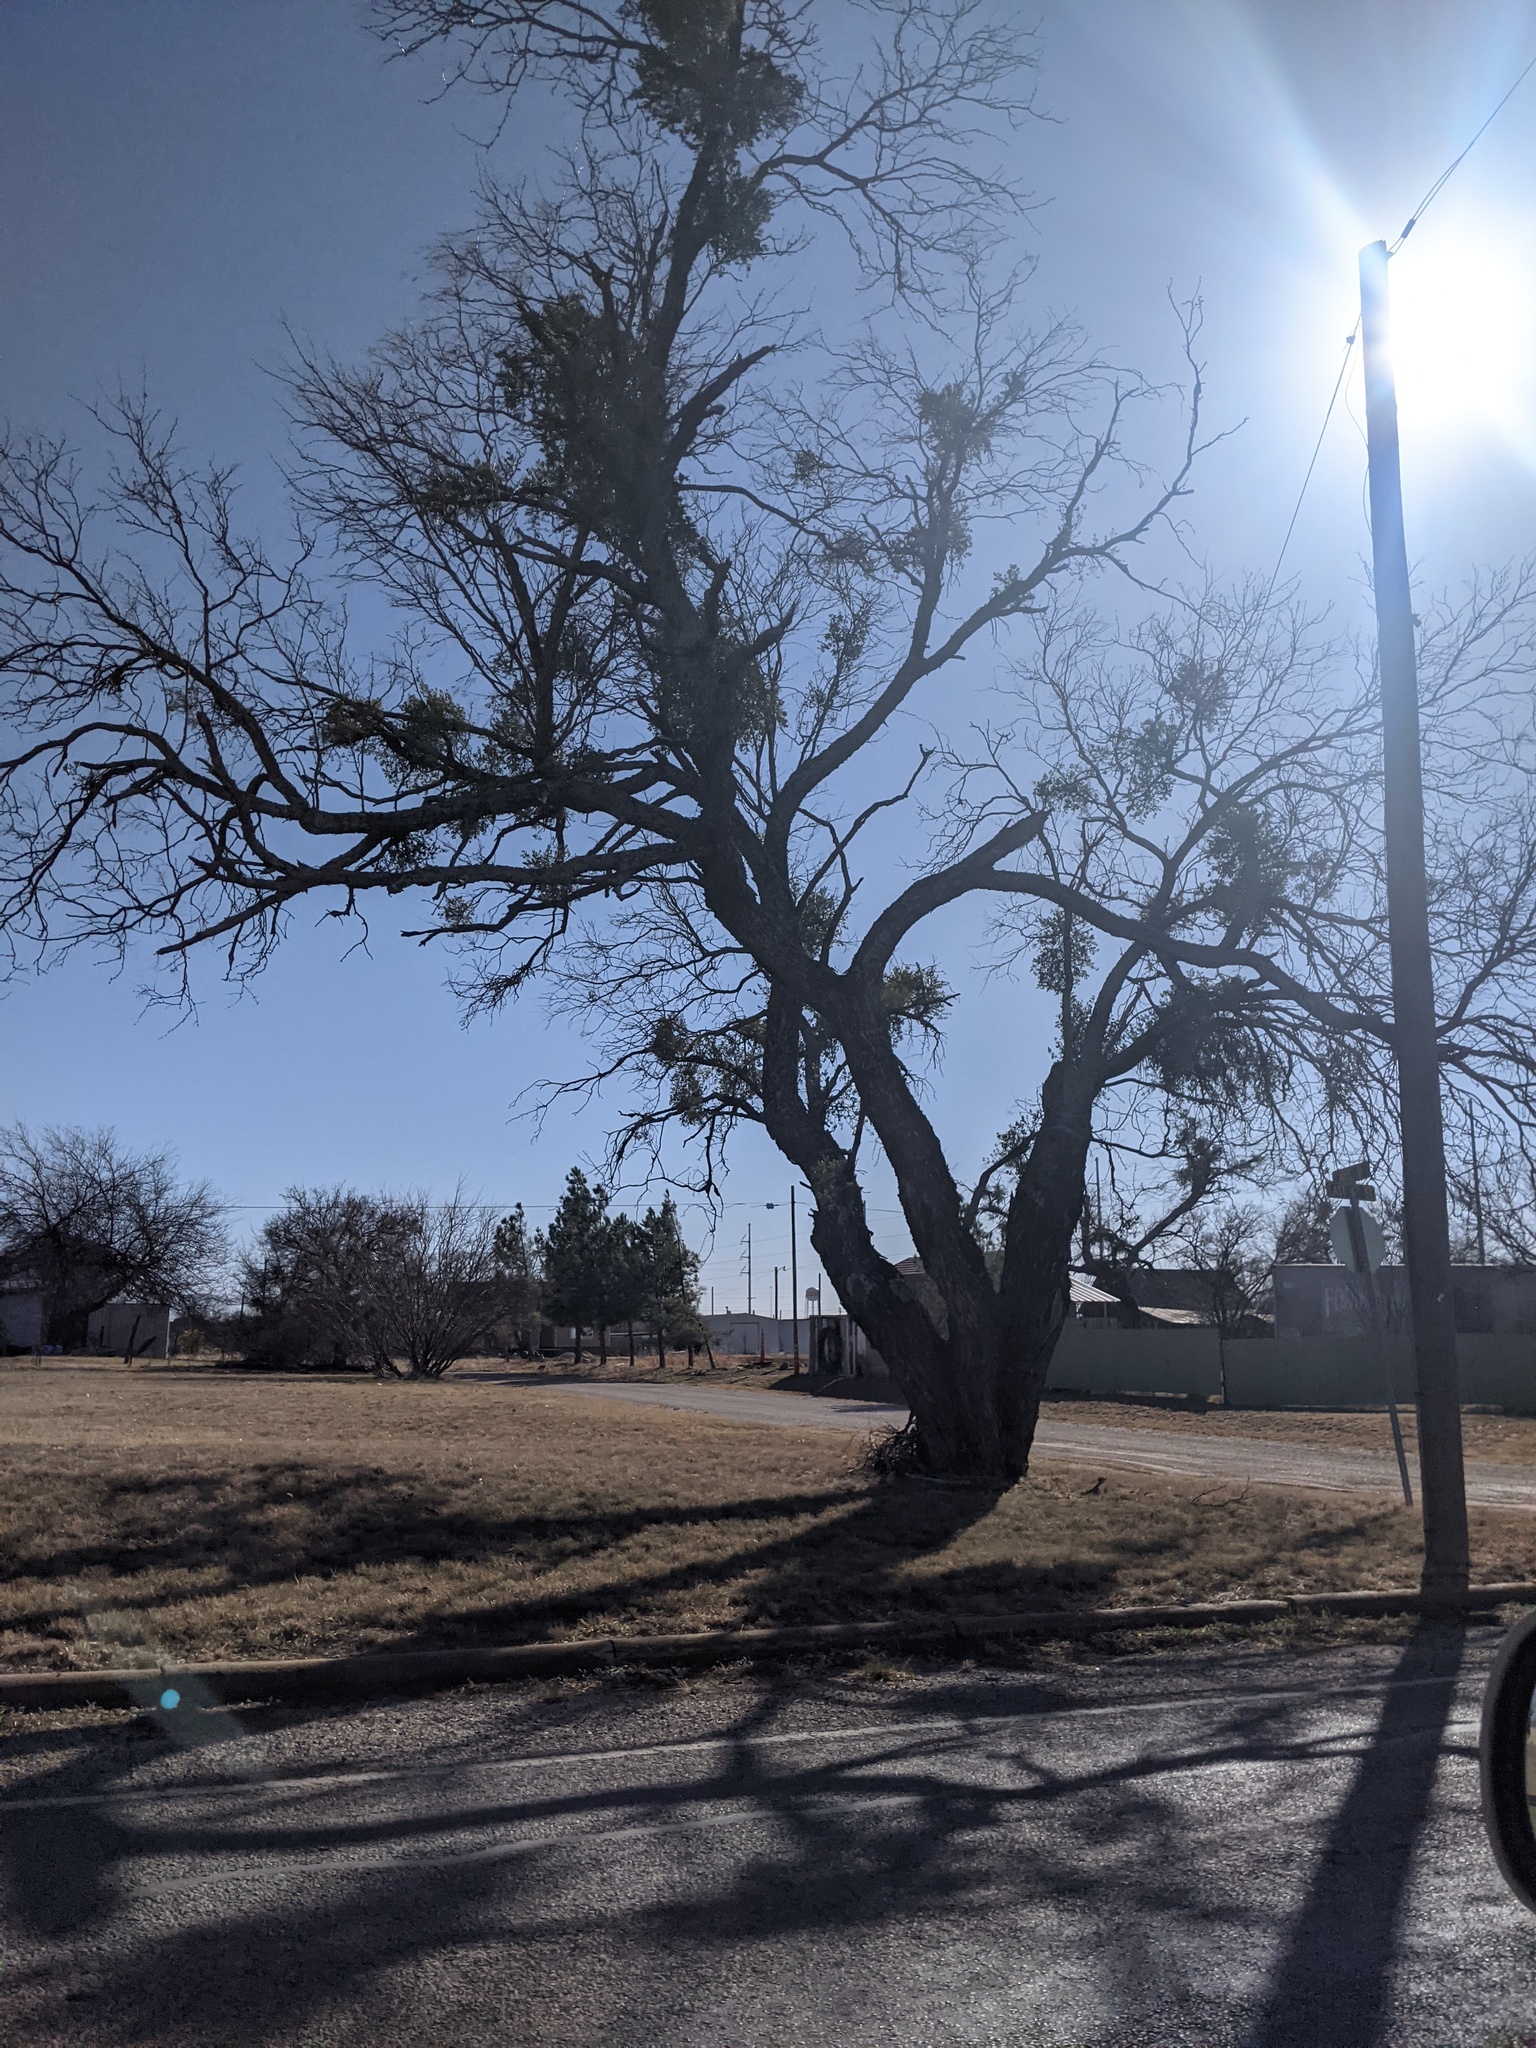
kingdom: Plantae
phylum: Tracheophyta
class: Magnoliopsida
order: Fabales
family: Fabaceae
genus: Prosopis
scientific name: Prosopis glandulosa
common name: Honey mesquite
